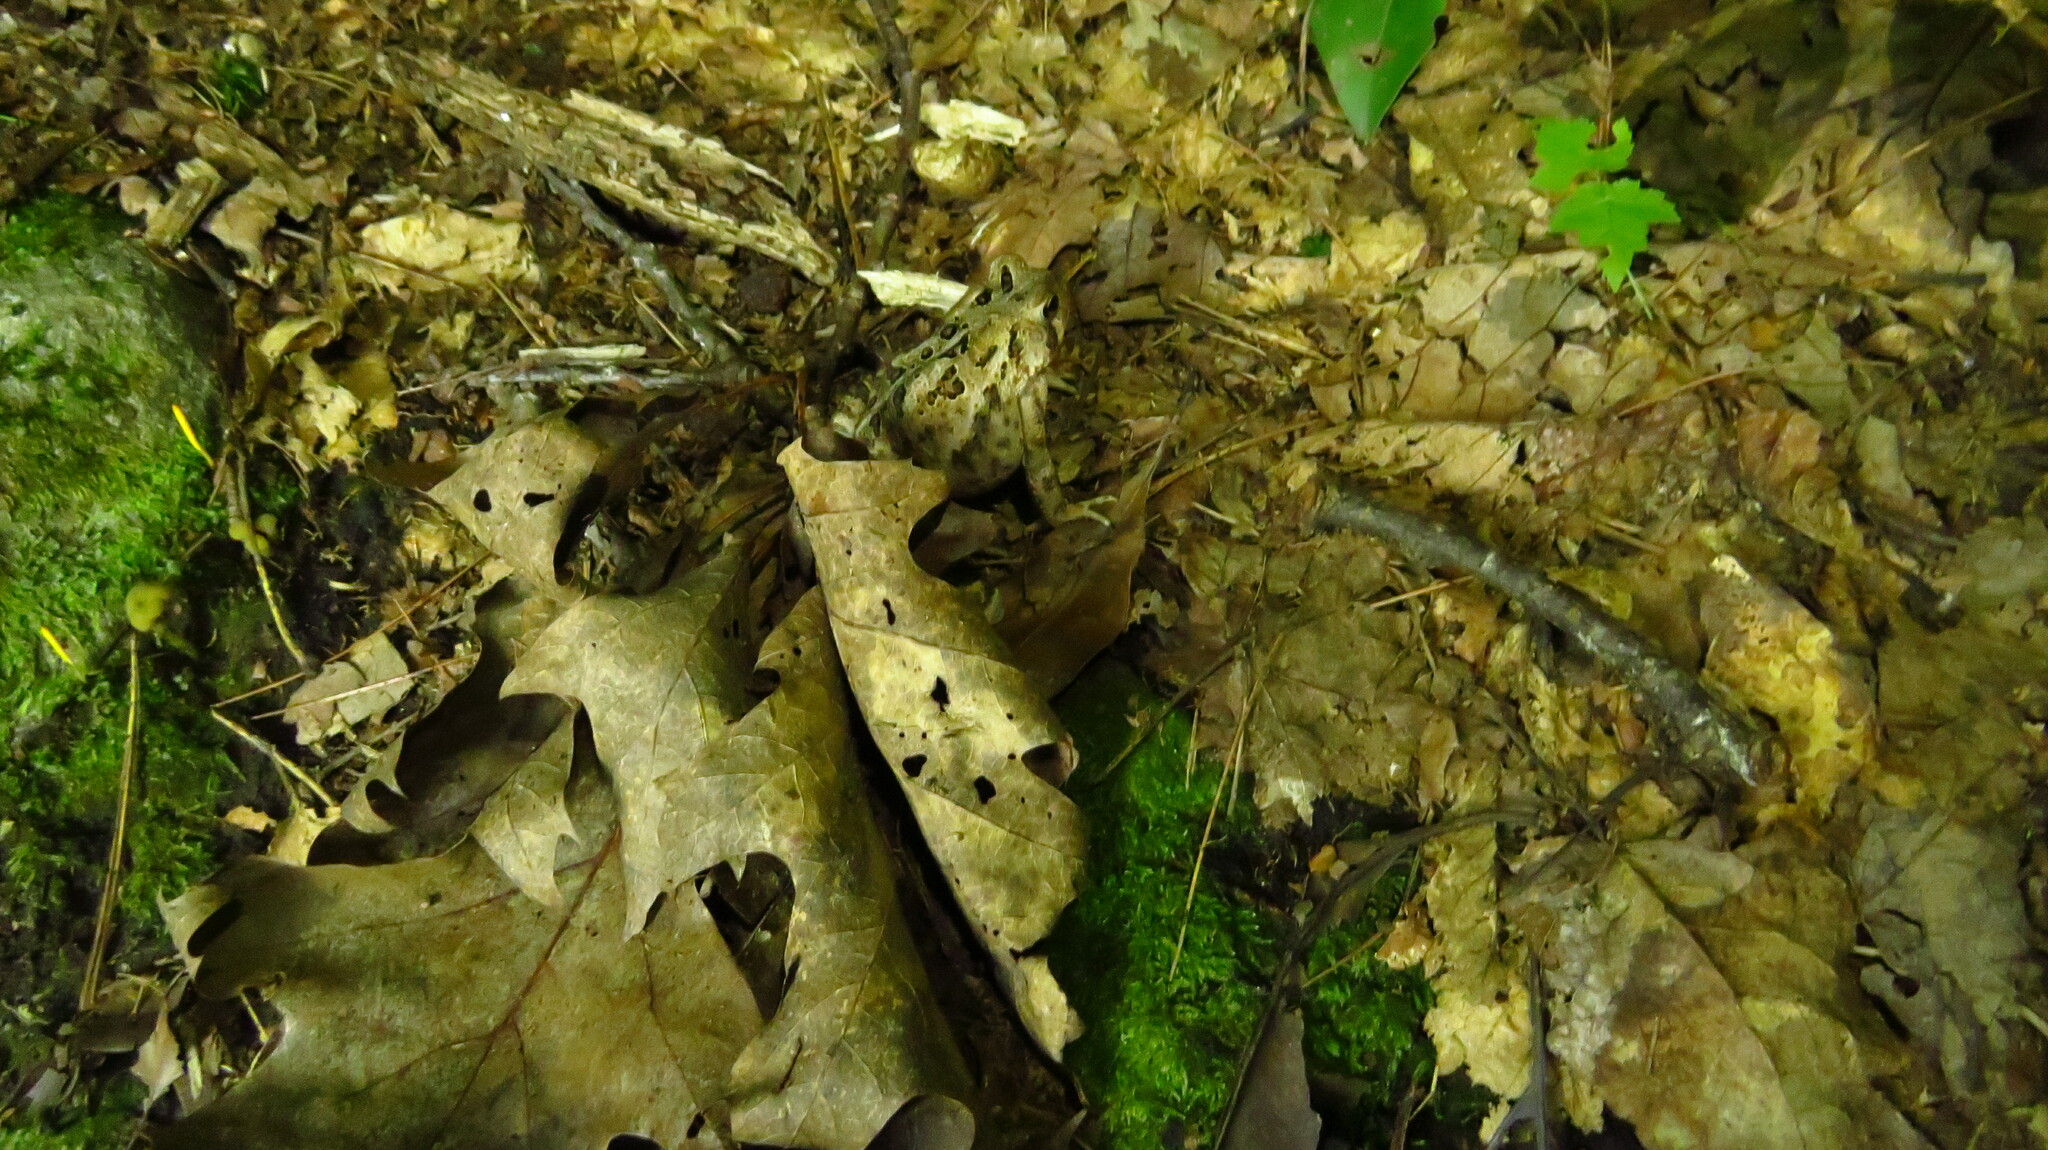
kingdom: Animalia
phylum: Chordata
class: Amphibia
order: Anura
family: Bufonidae
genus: Anaxyrus
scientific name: Anaxyrus americanus
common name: American toad
